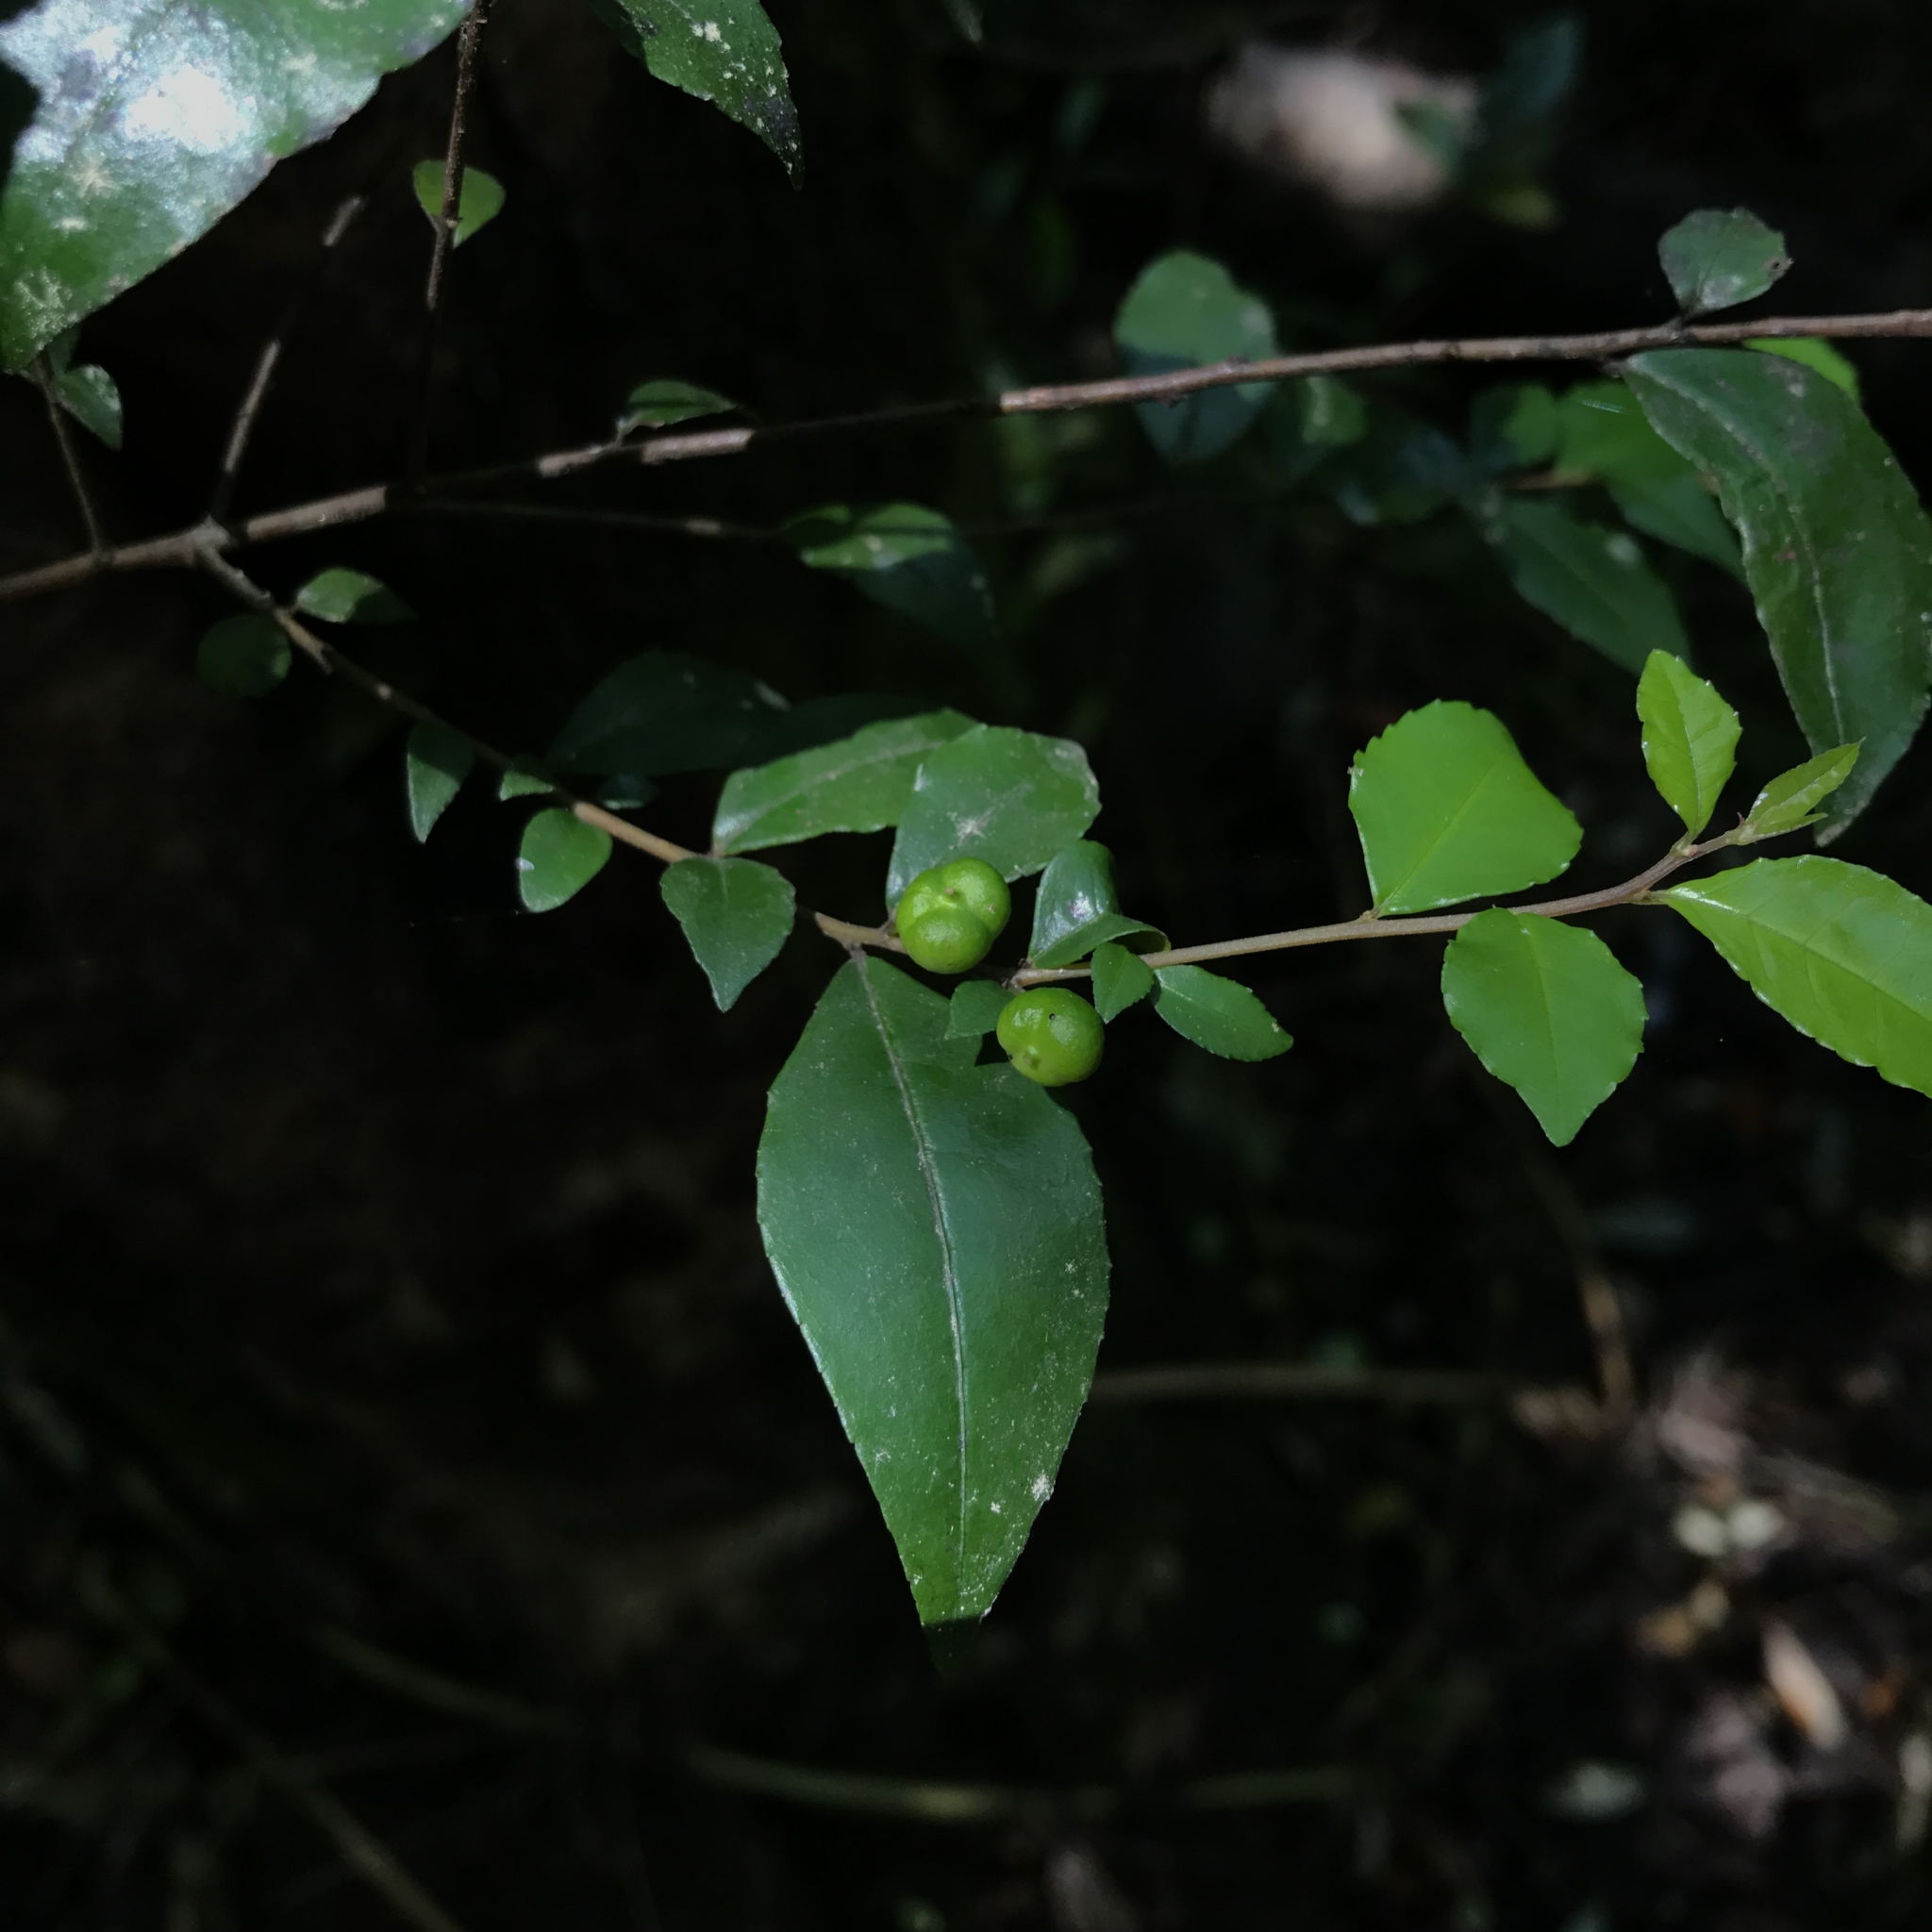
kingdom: Plantae
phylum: Tracheophyta
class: Magnoliopsida
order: Rosales
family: Rhamnaceae
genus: Condalia
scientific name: Condalia maytenoides
